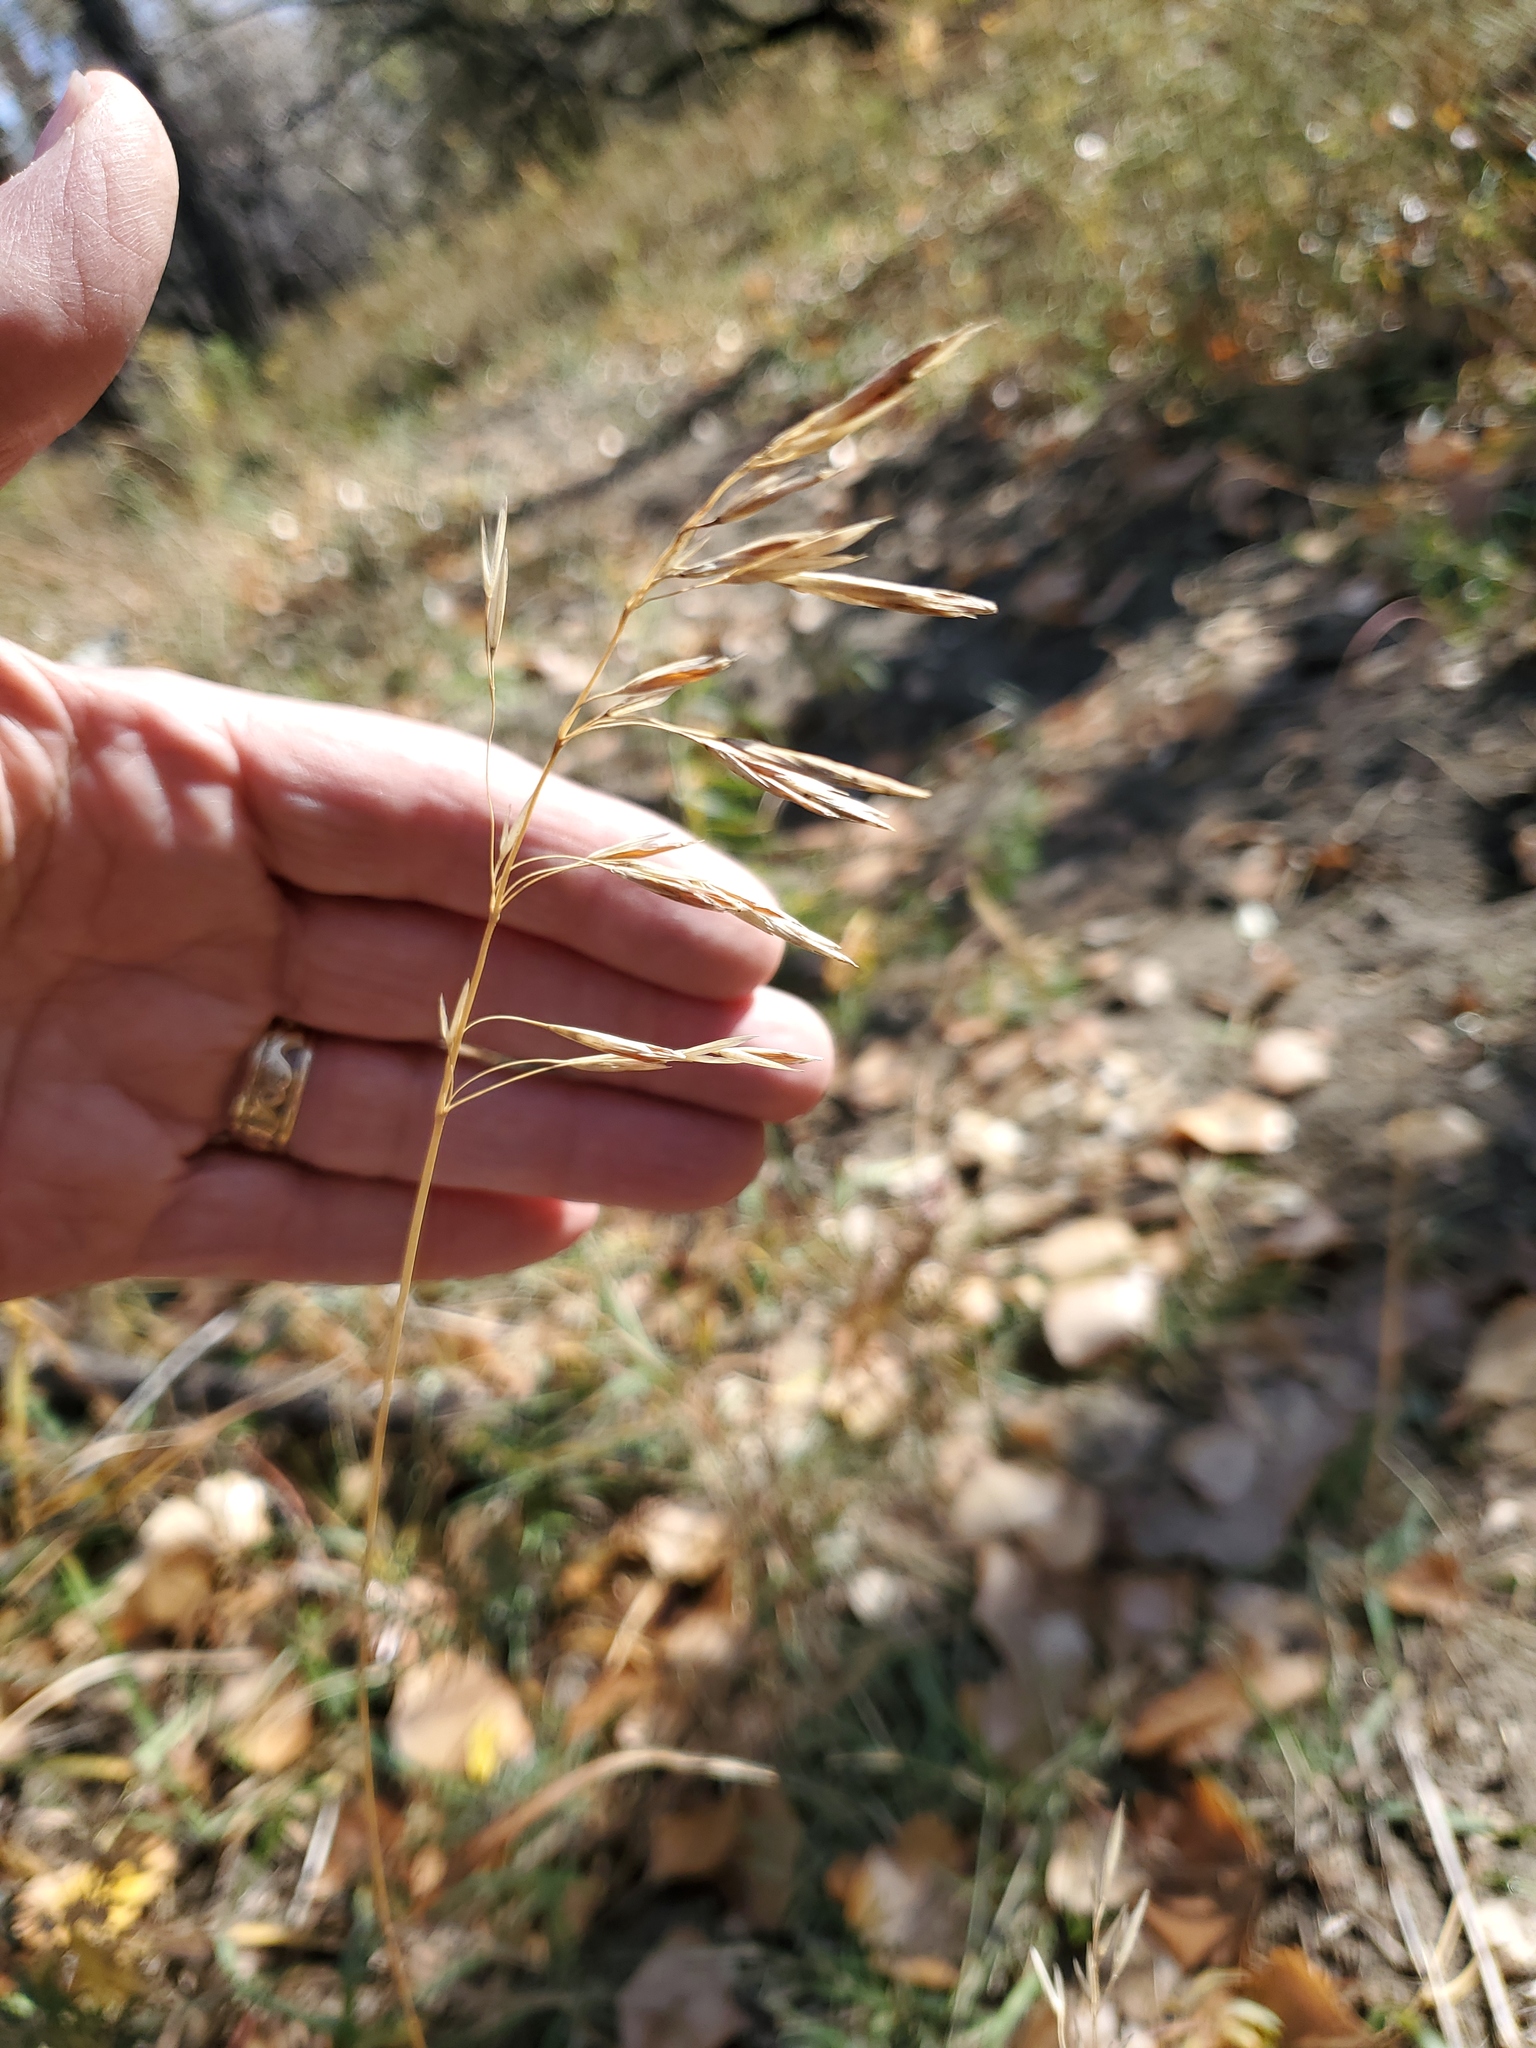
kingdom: Plantae
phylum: Tracheophyta
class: Liliopsida
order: Poales
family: Poaceae
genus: Bromus
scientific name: Bromus inermis
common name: Smooth brome
